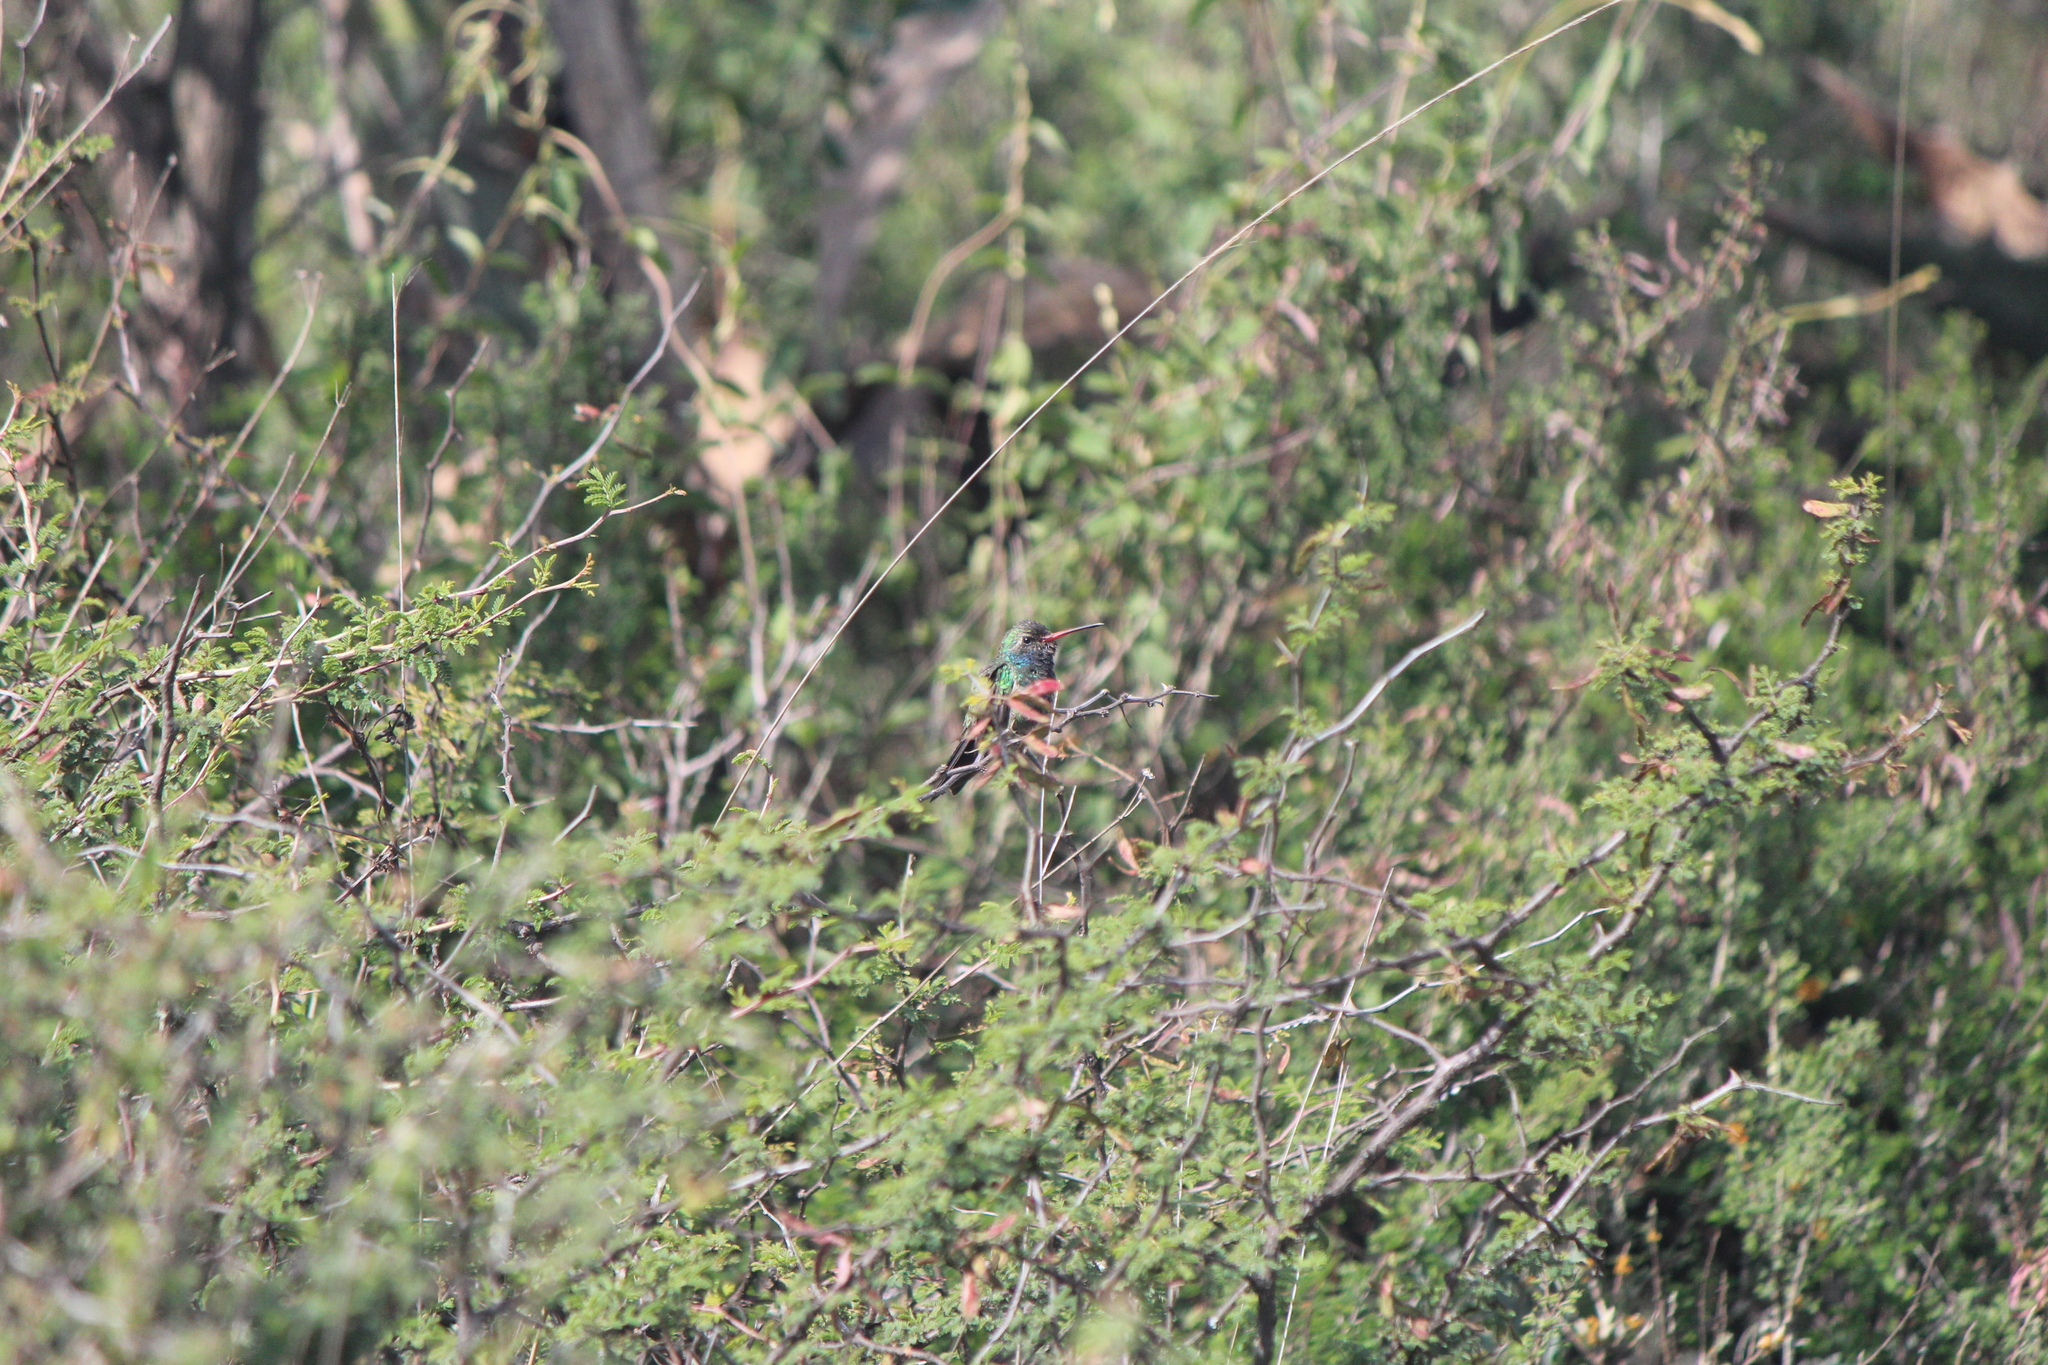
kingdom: Animalia
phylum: Chordata
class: Aves
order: Apodiformes
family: Trochilidae
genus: Cynanthus
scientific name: Cynanthus latirostris
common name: Broad-billed hummingbird
